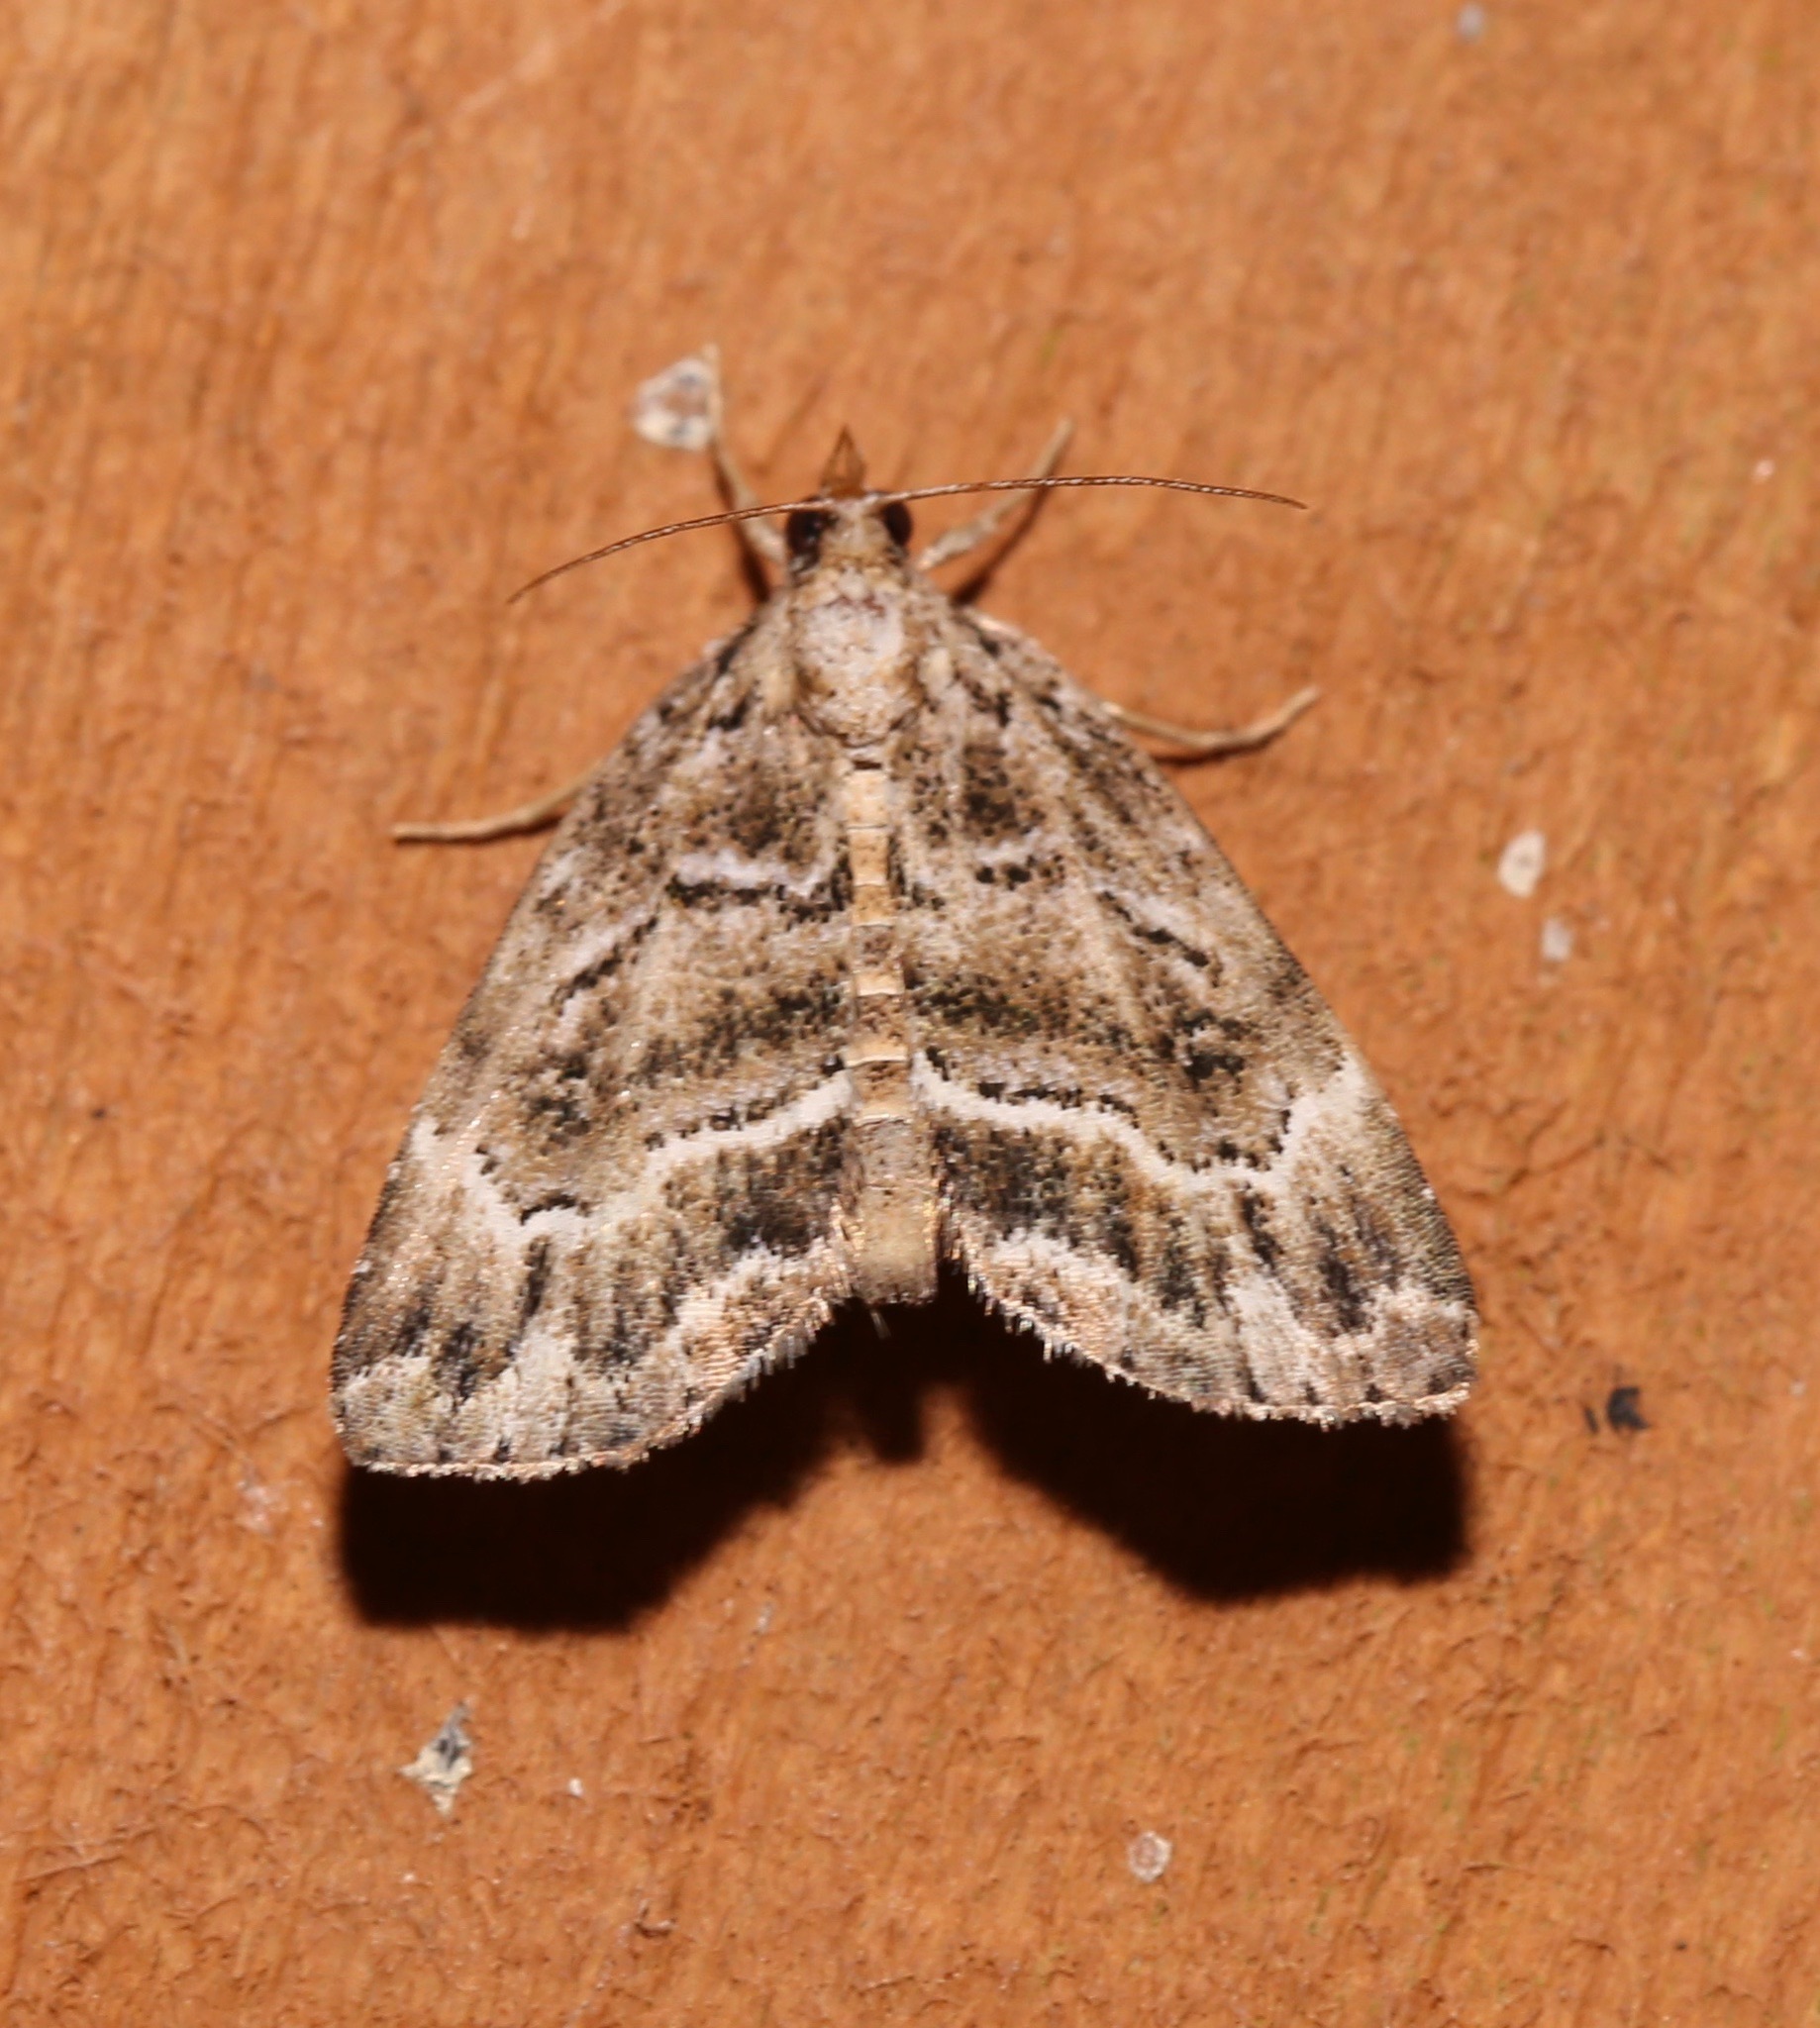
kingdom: Animalia
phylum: Arthropoda
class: Insecta
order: Lepidoptera
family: Erebidae
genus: Cutina
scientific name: Cutina arcuata
